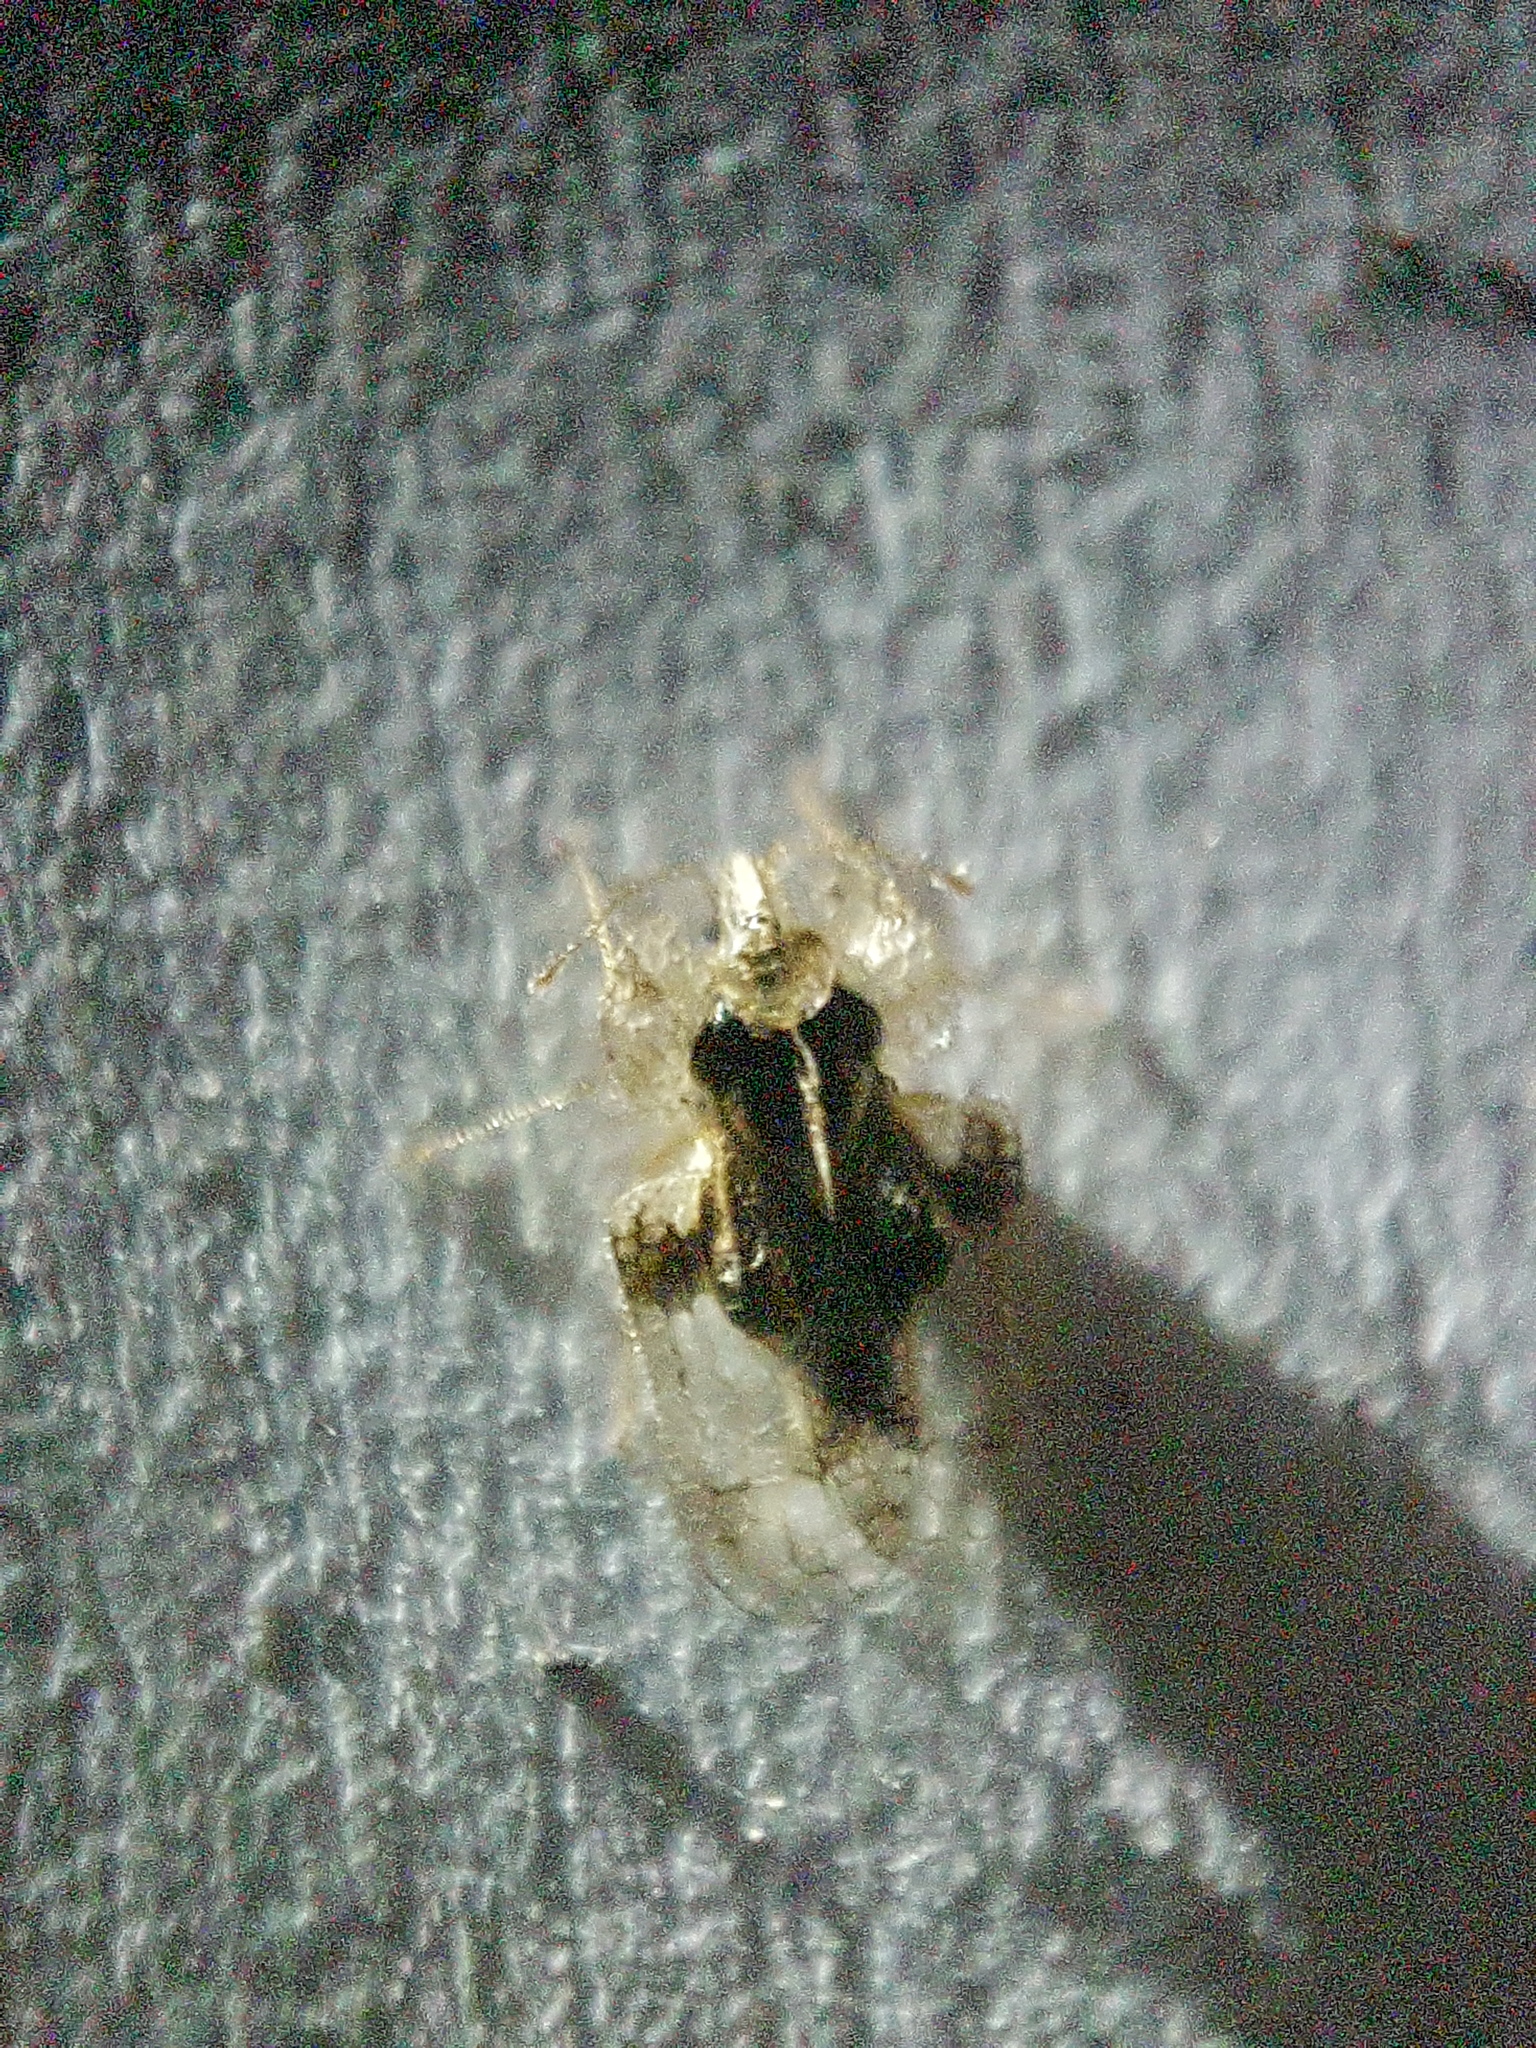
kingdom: Animalia
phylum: Arthropoda
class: Insecta
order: Hemiptera
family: Tingidae
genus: Corythucha
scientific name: Corythucha arcuata
